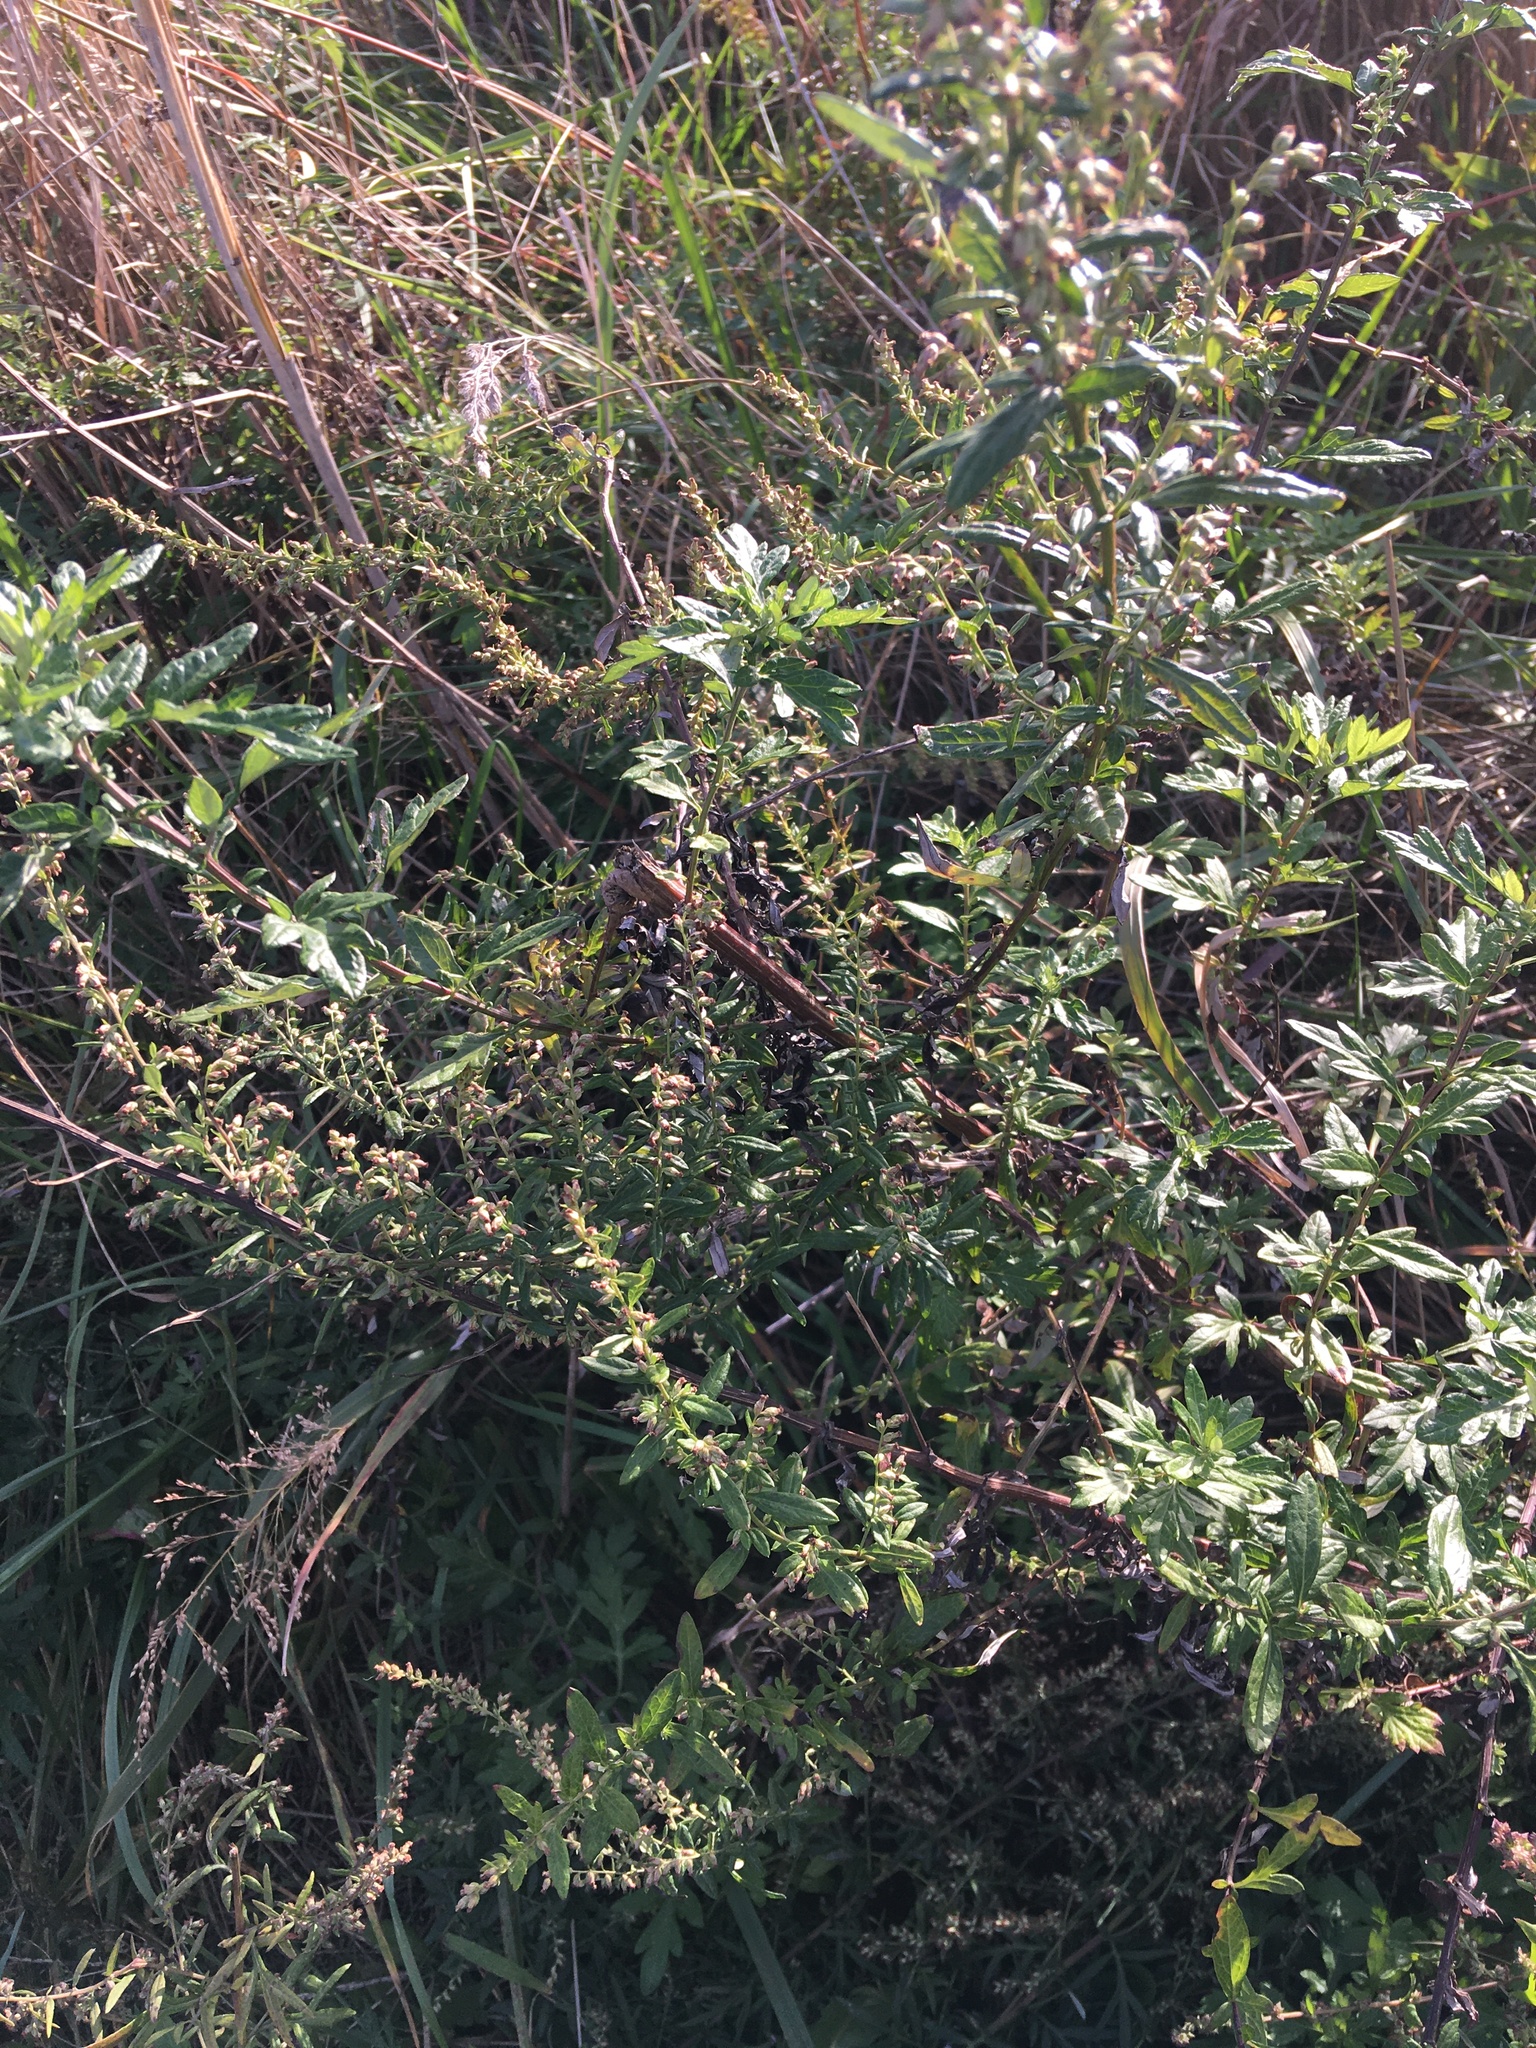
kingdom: Plantae
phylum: Tracheophyta
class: Magnoliopsida
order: Asterales
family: Asteraceae
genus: Artemisia
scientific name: Artemisia vulgaris
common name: Mugwort
